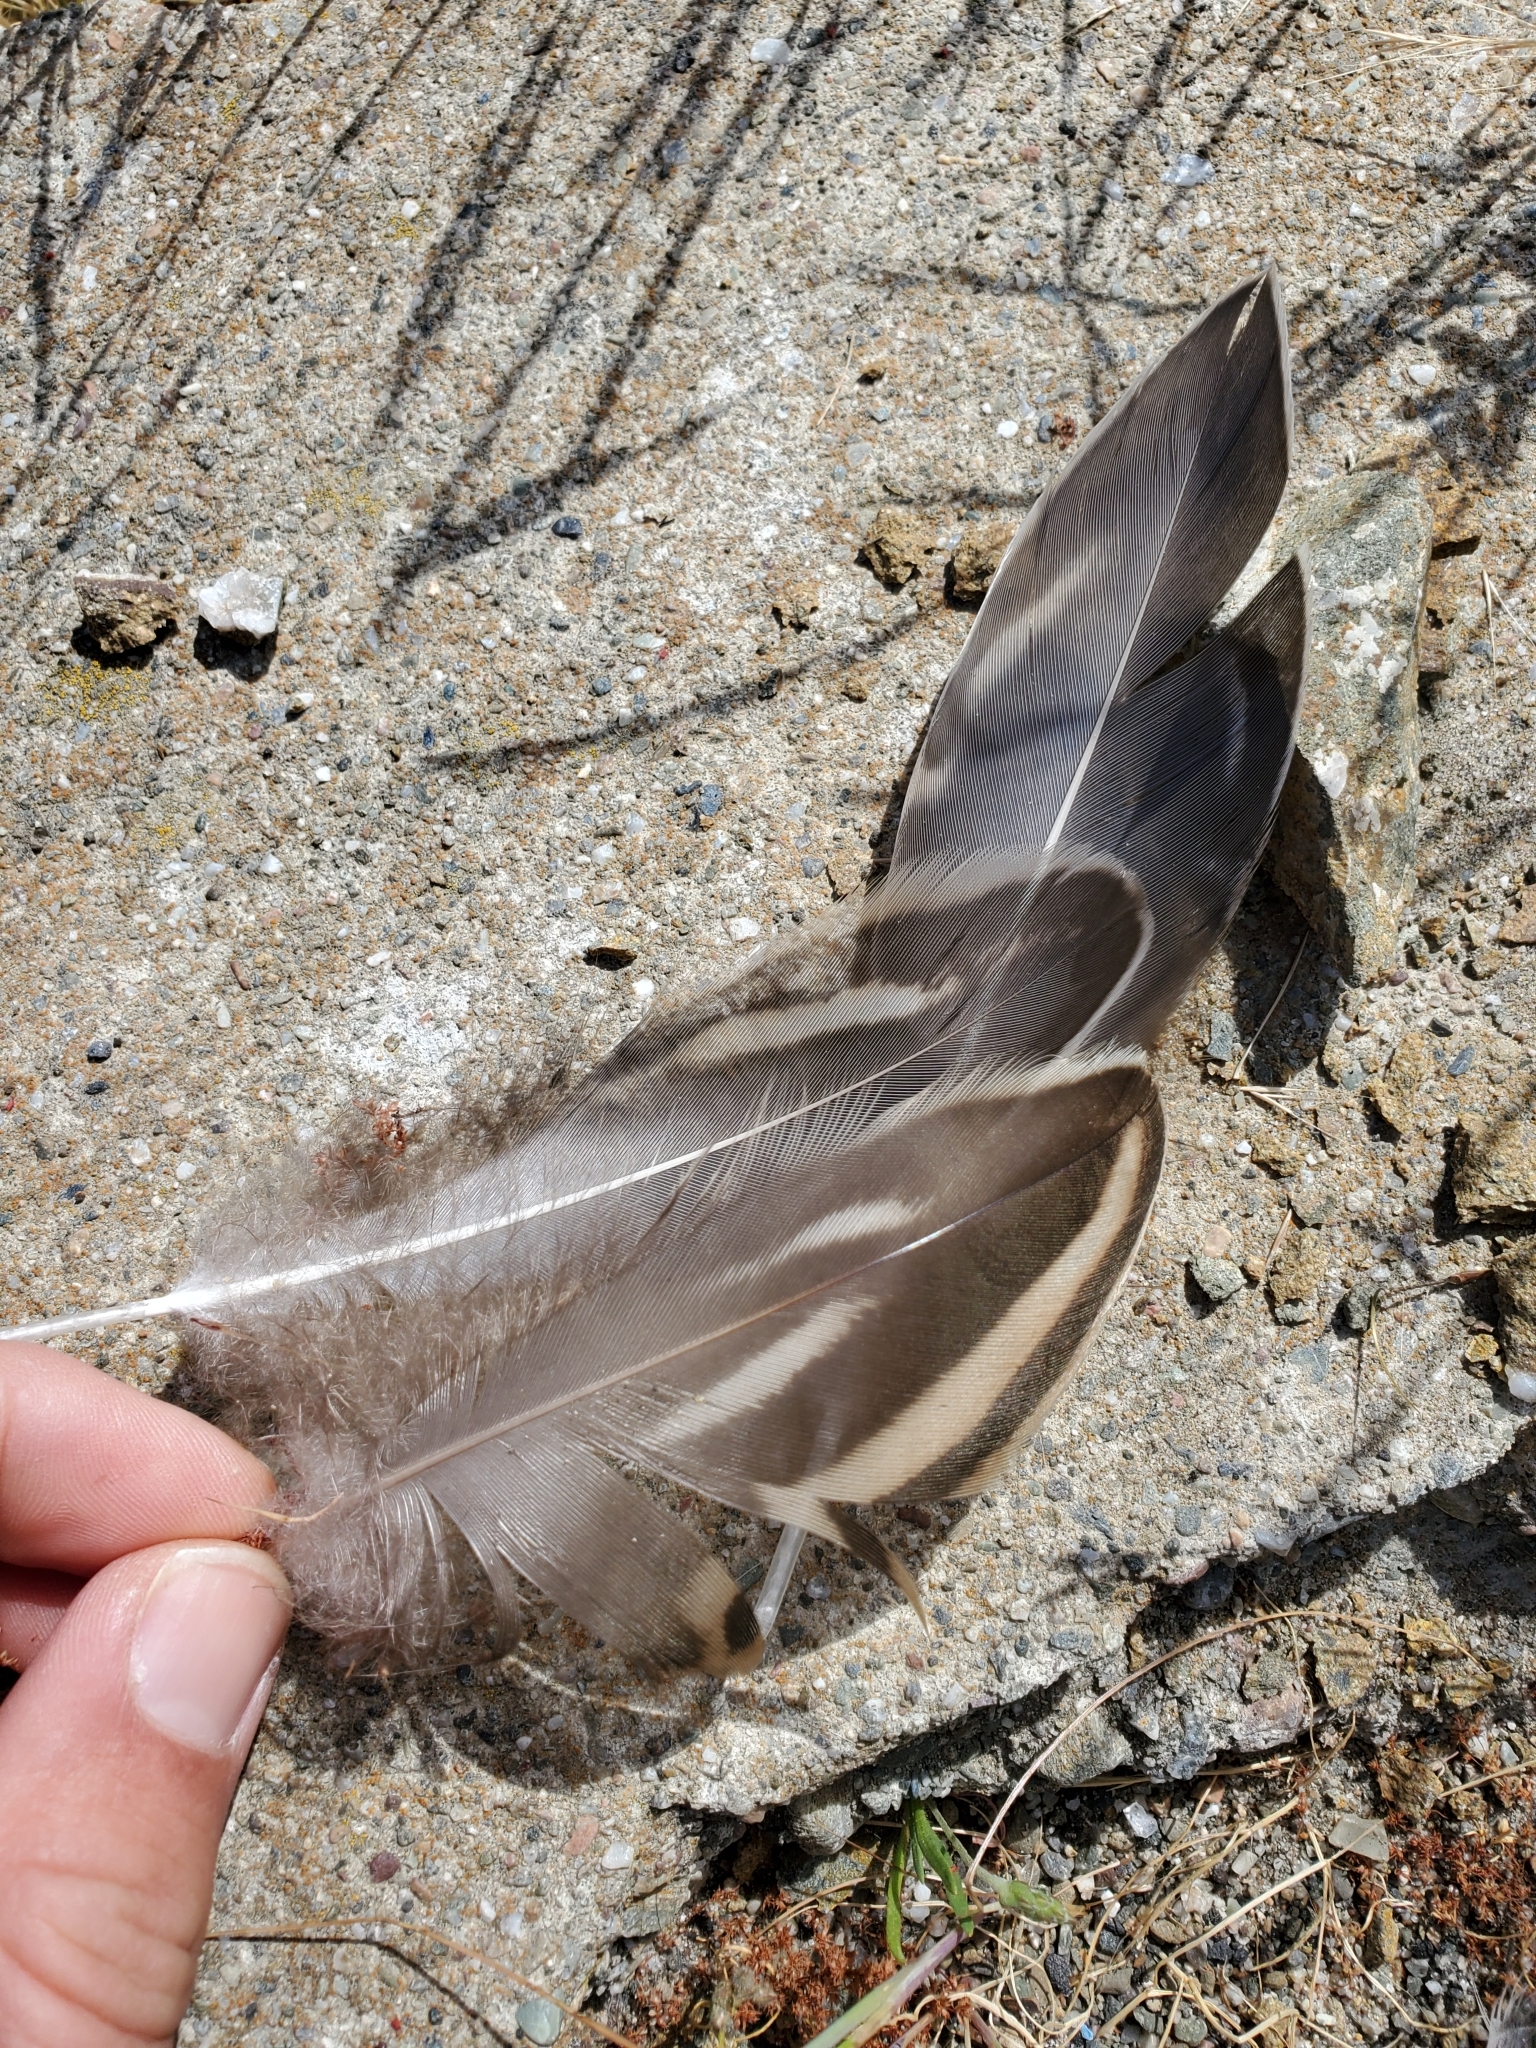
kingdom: Animalia
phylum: Chordata
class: Aves
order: Anseriformes
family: Anatidae
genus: Anas
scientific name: Anas platyrhynchos
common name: Mallard
